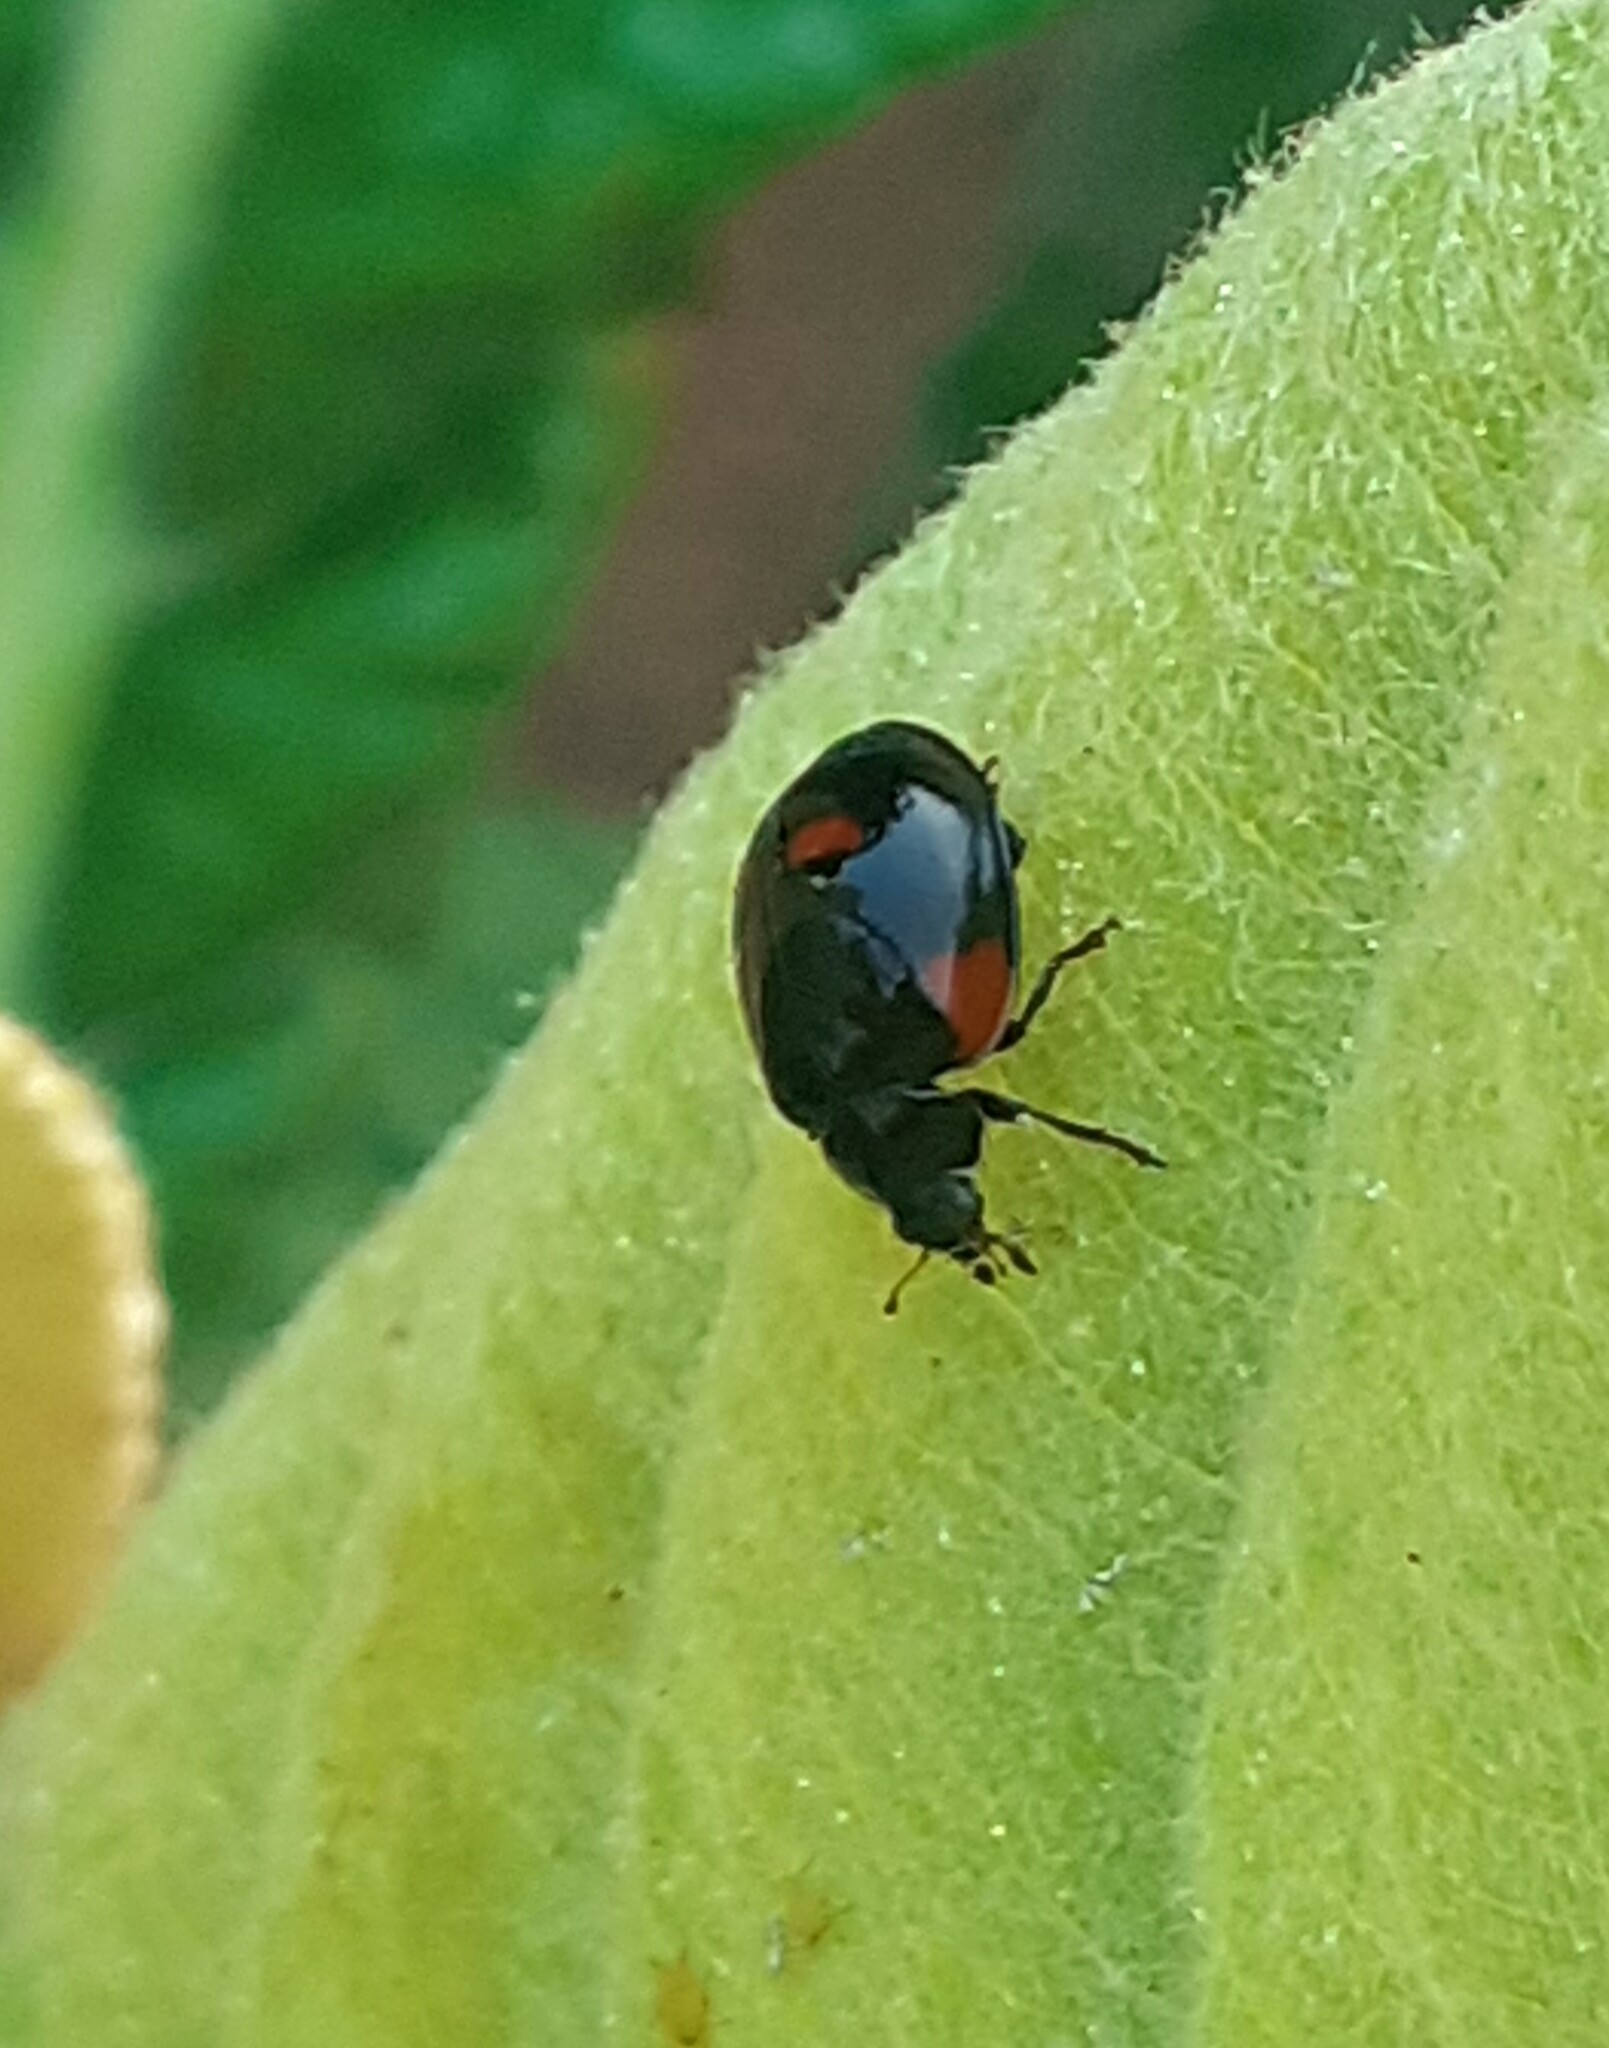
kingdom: Animalia
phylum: Arthropoda
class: Insecta
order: Coleoptera
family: Coccinellidae
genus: Adalia
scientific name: Adalia bipunctata
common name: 2-spot ladybird
